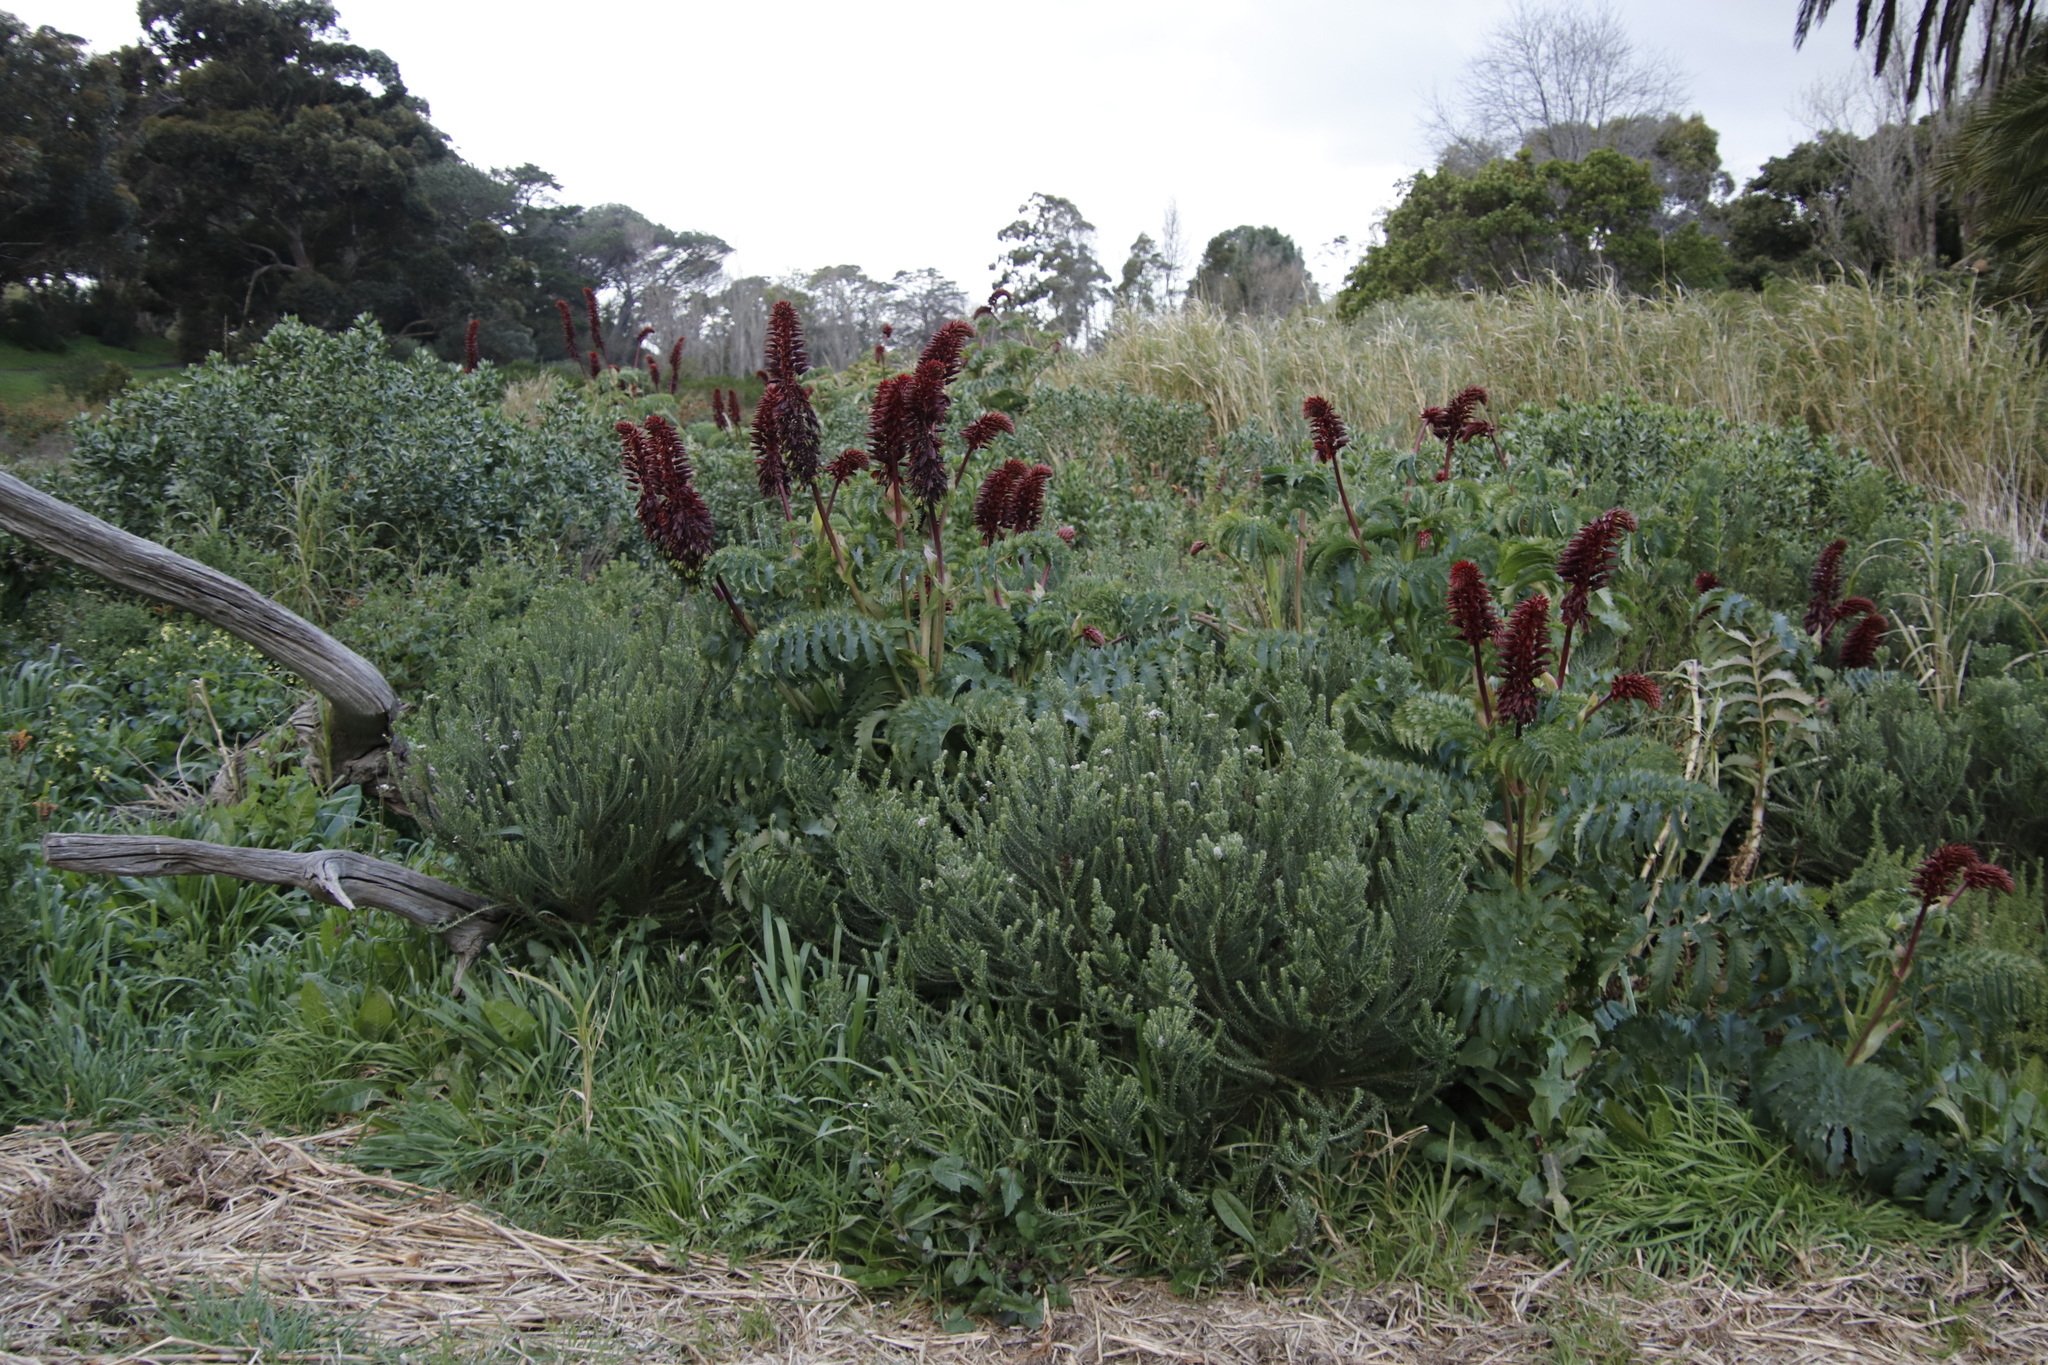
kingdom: Plantae
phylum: Tracheophyta
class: Magnoliopsida
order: Geraniales
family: Melianthaceae
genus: Melianthus
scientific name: Melianthus major
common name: Honey-flower
